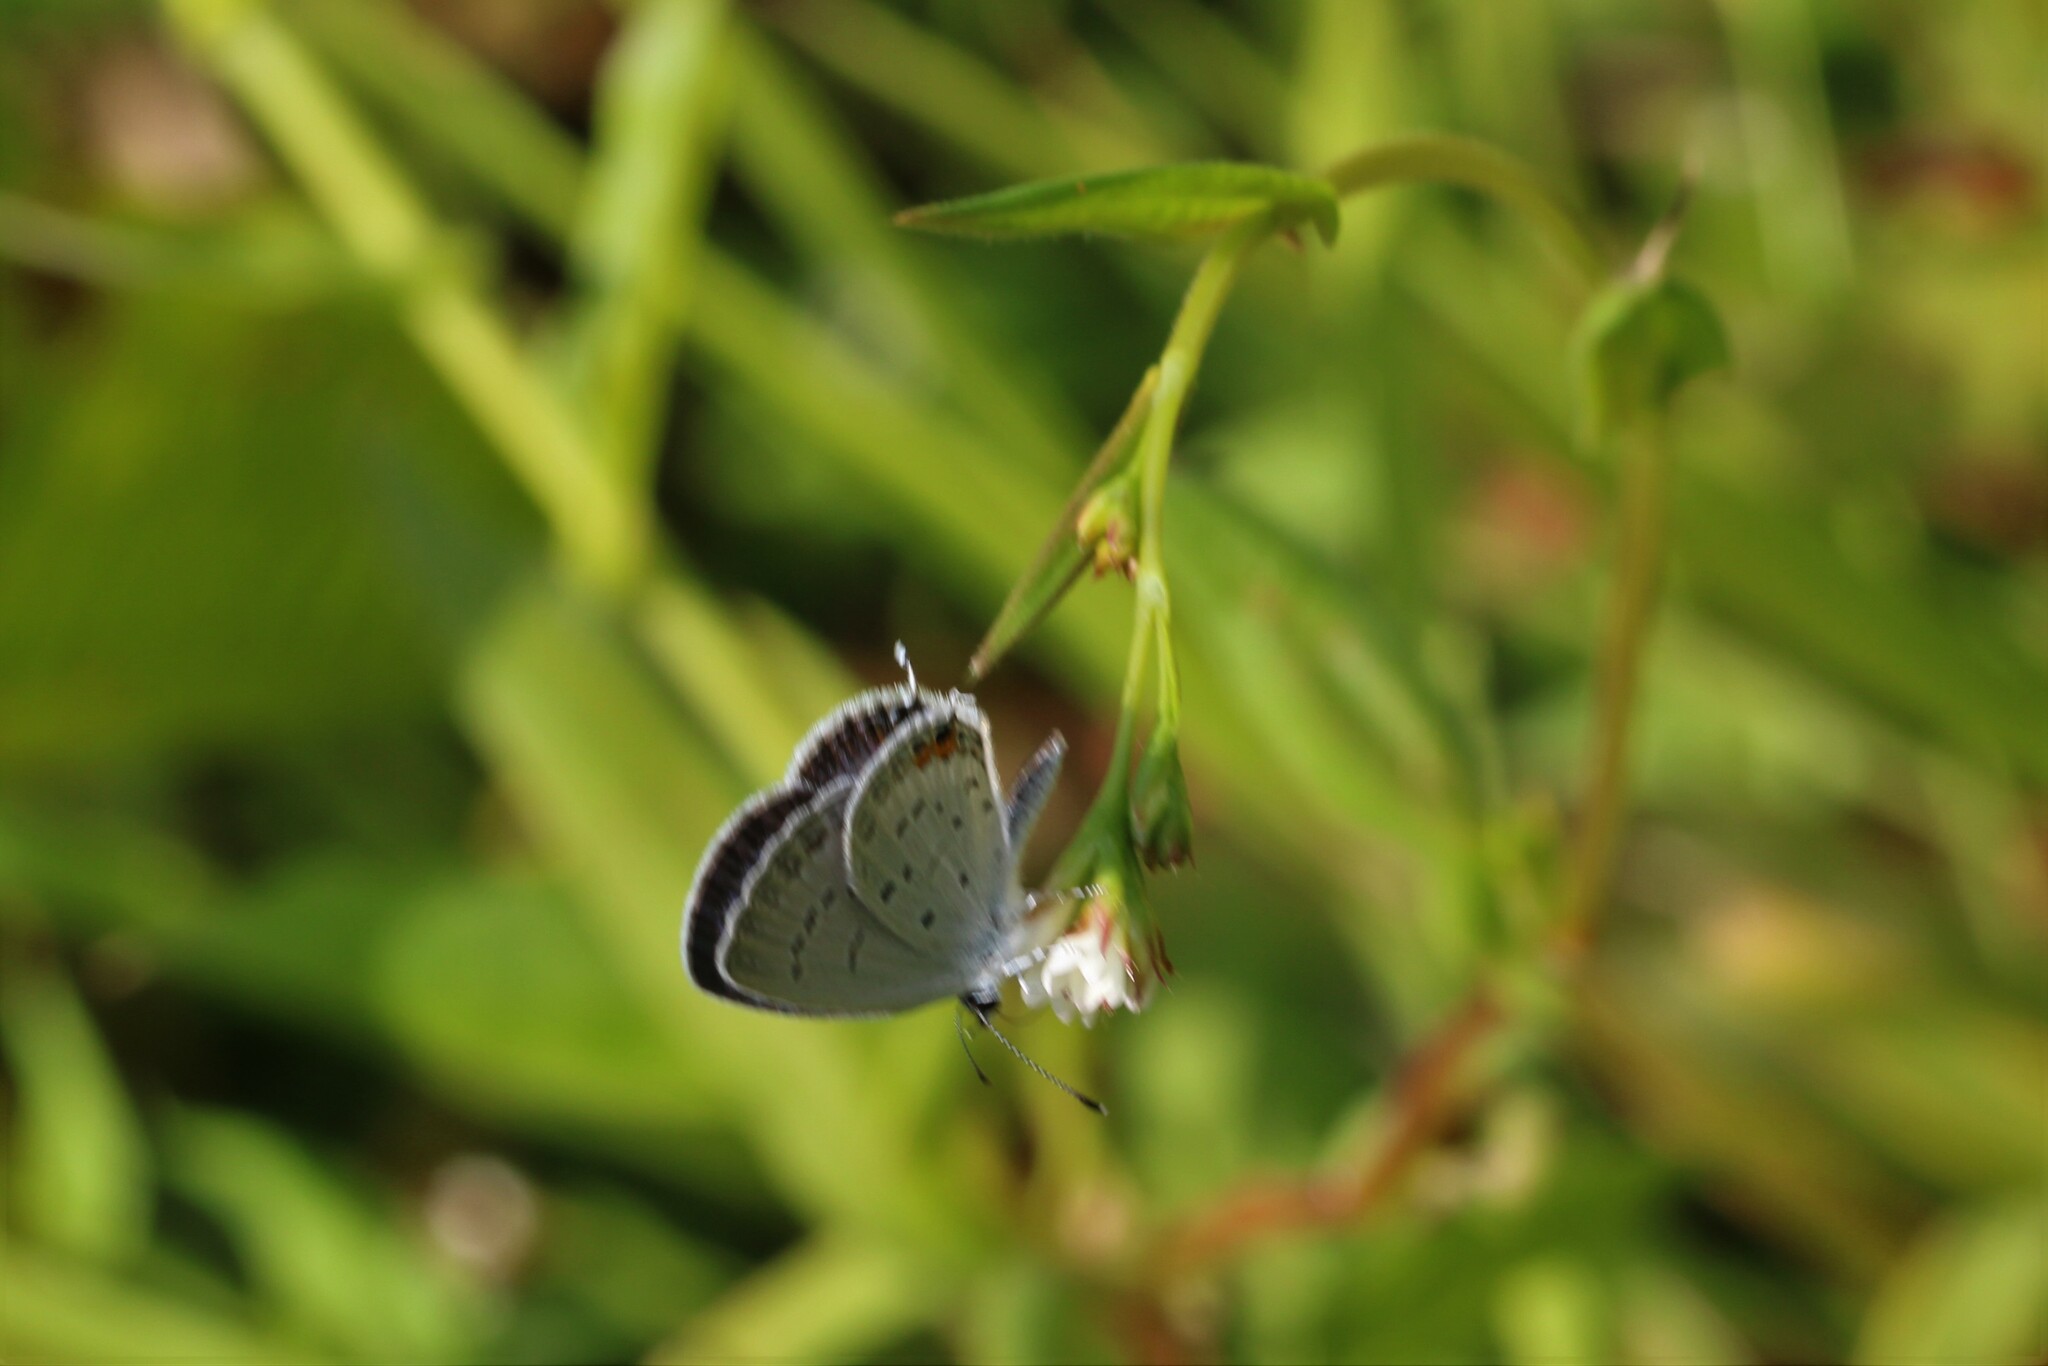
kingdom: Animalia
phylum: Arthropoda
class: Insecta
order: Lepidoptera
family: Lycaenidae
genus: Elkalyce
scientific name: Elkalyce comyntas
